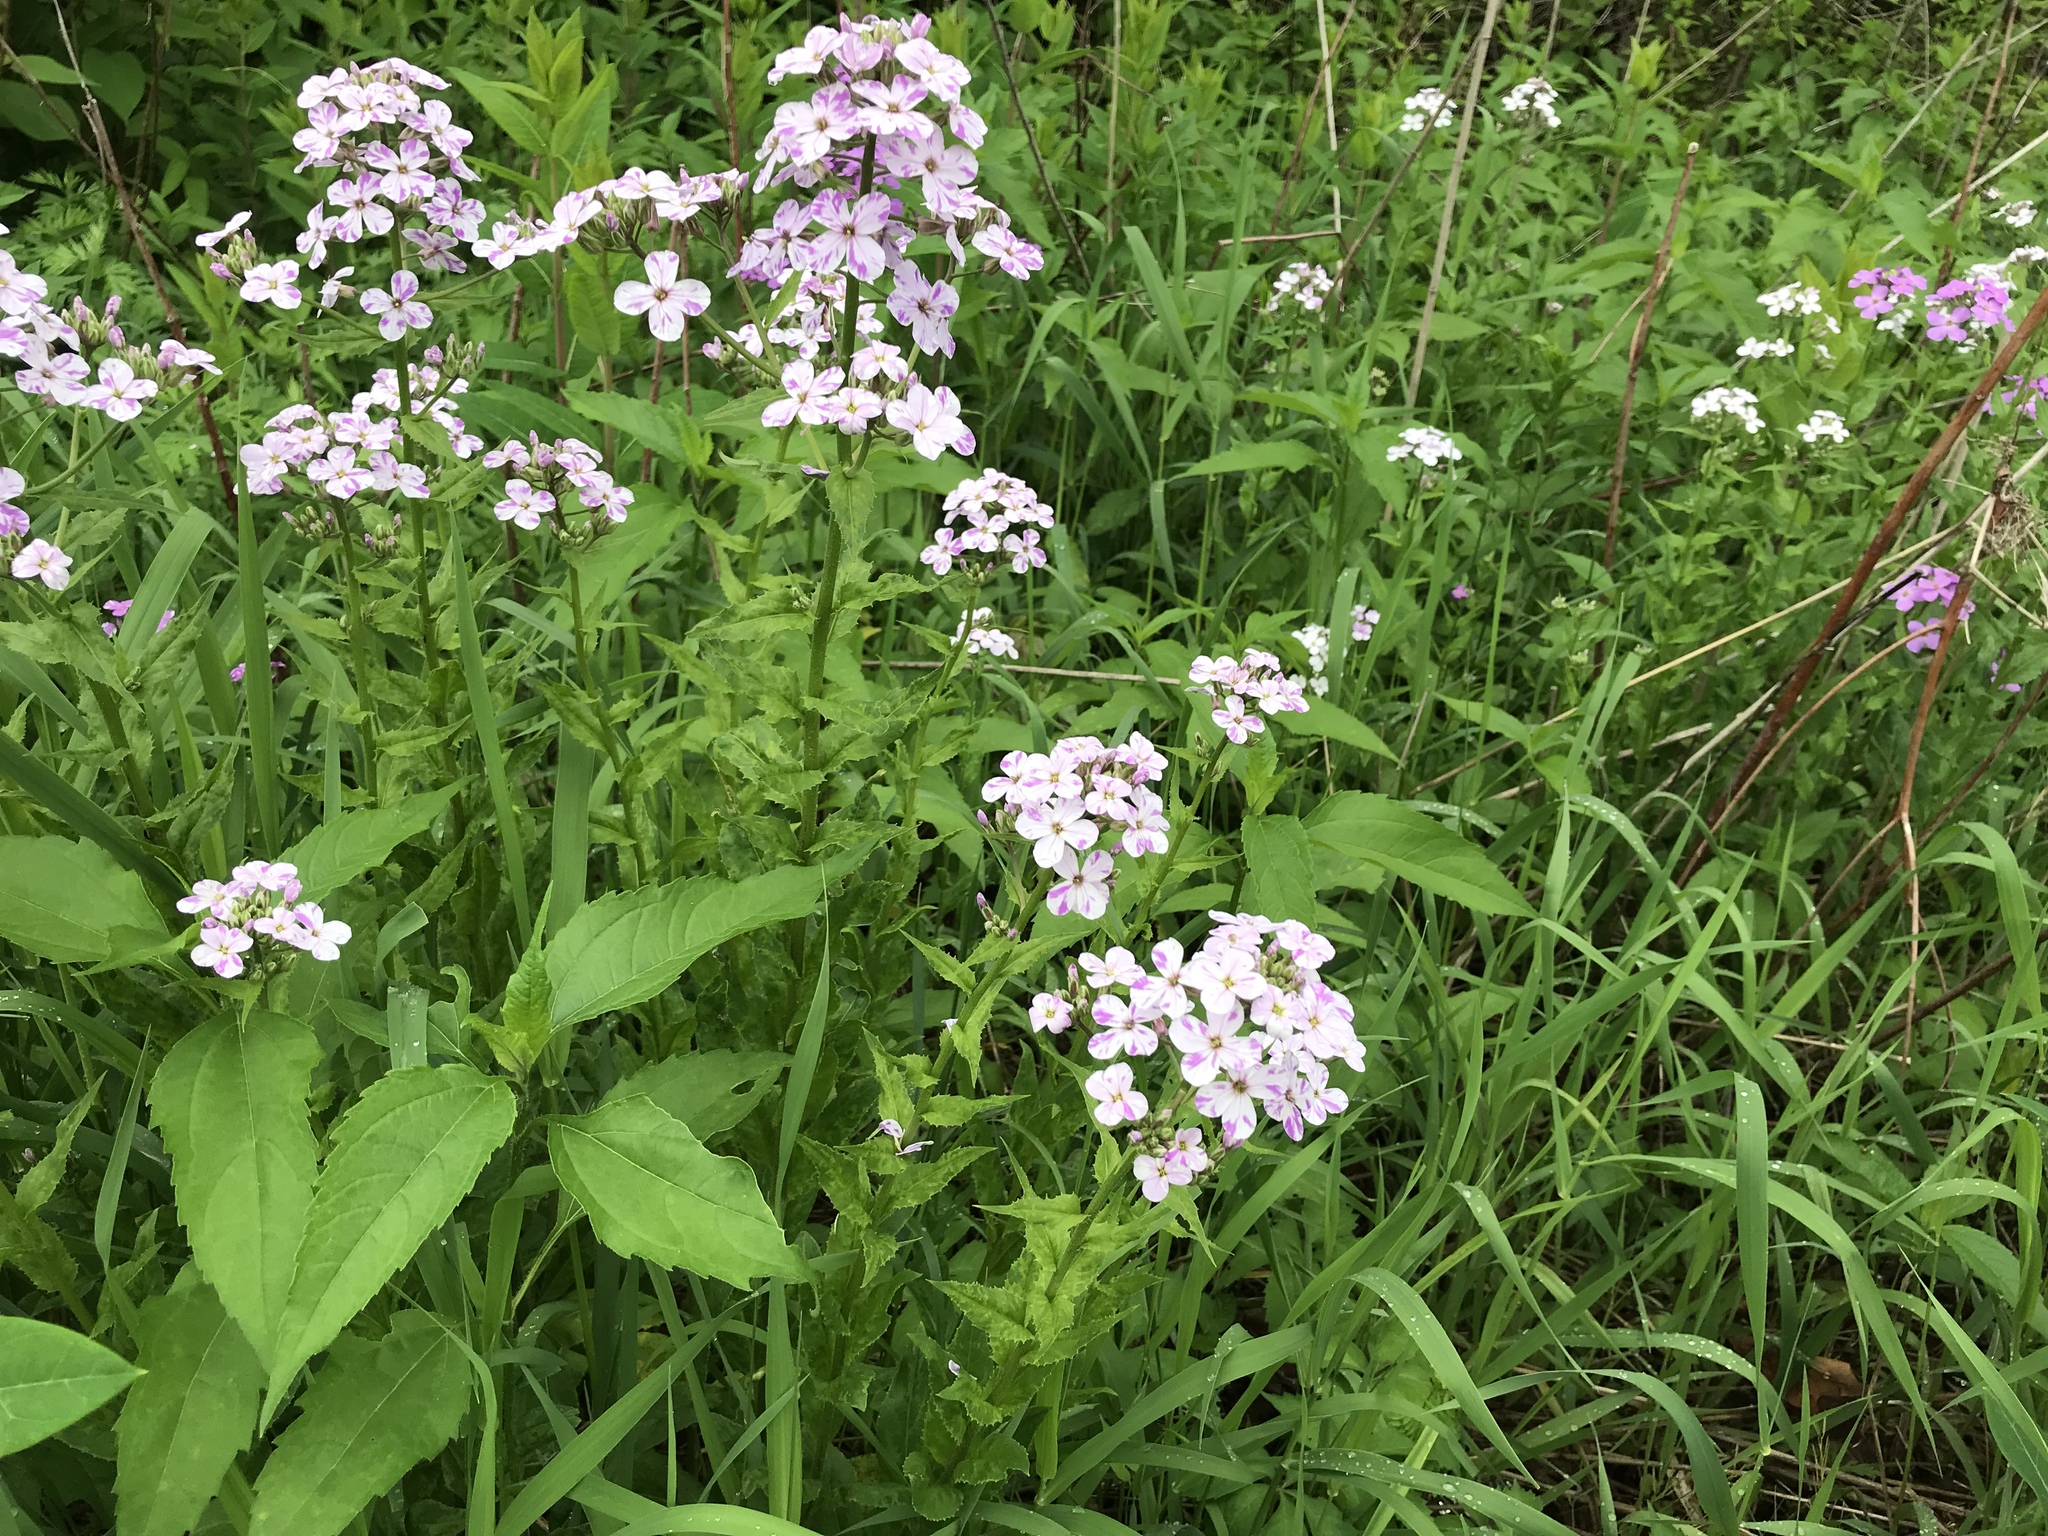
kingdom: Plantae
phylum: Tracheophyta
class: Magnoliopsida
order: Brassicales
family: Brassicaceae
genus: Hesperis
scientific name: Hesperis matronalis
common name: Dame's-violet
